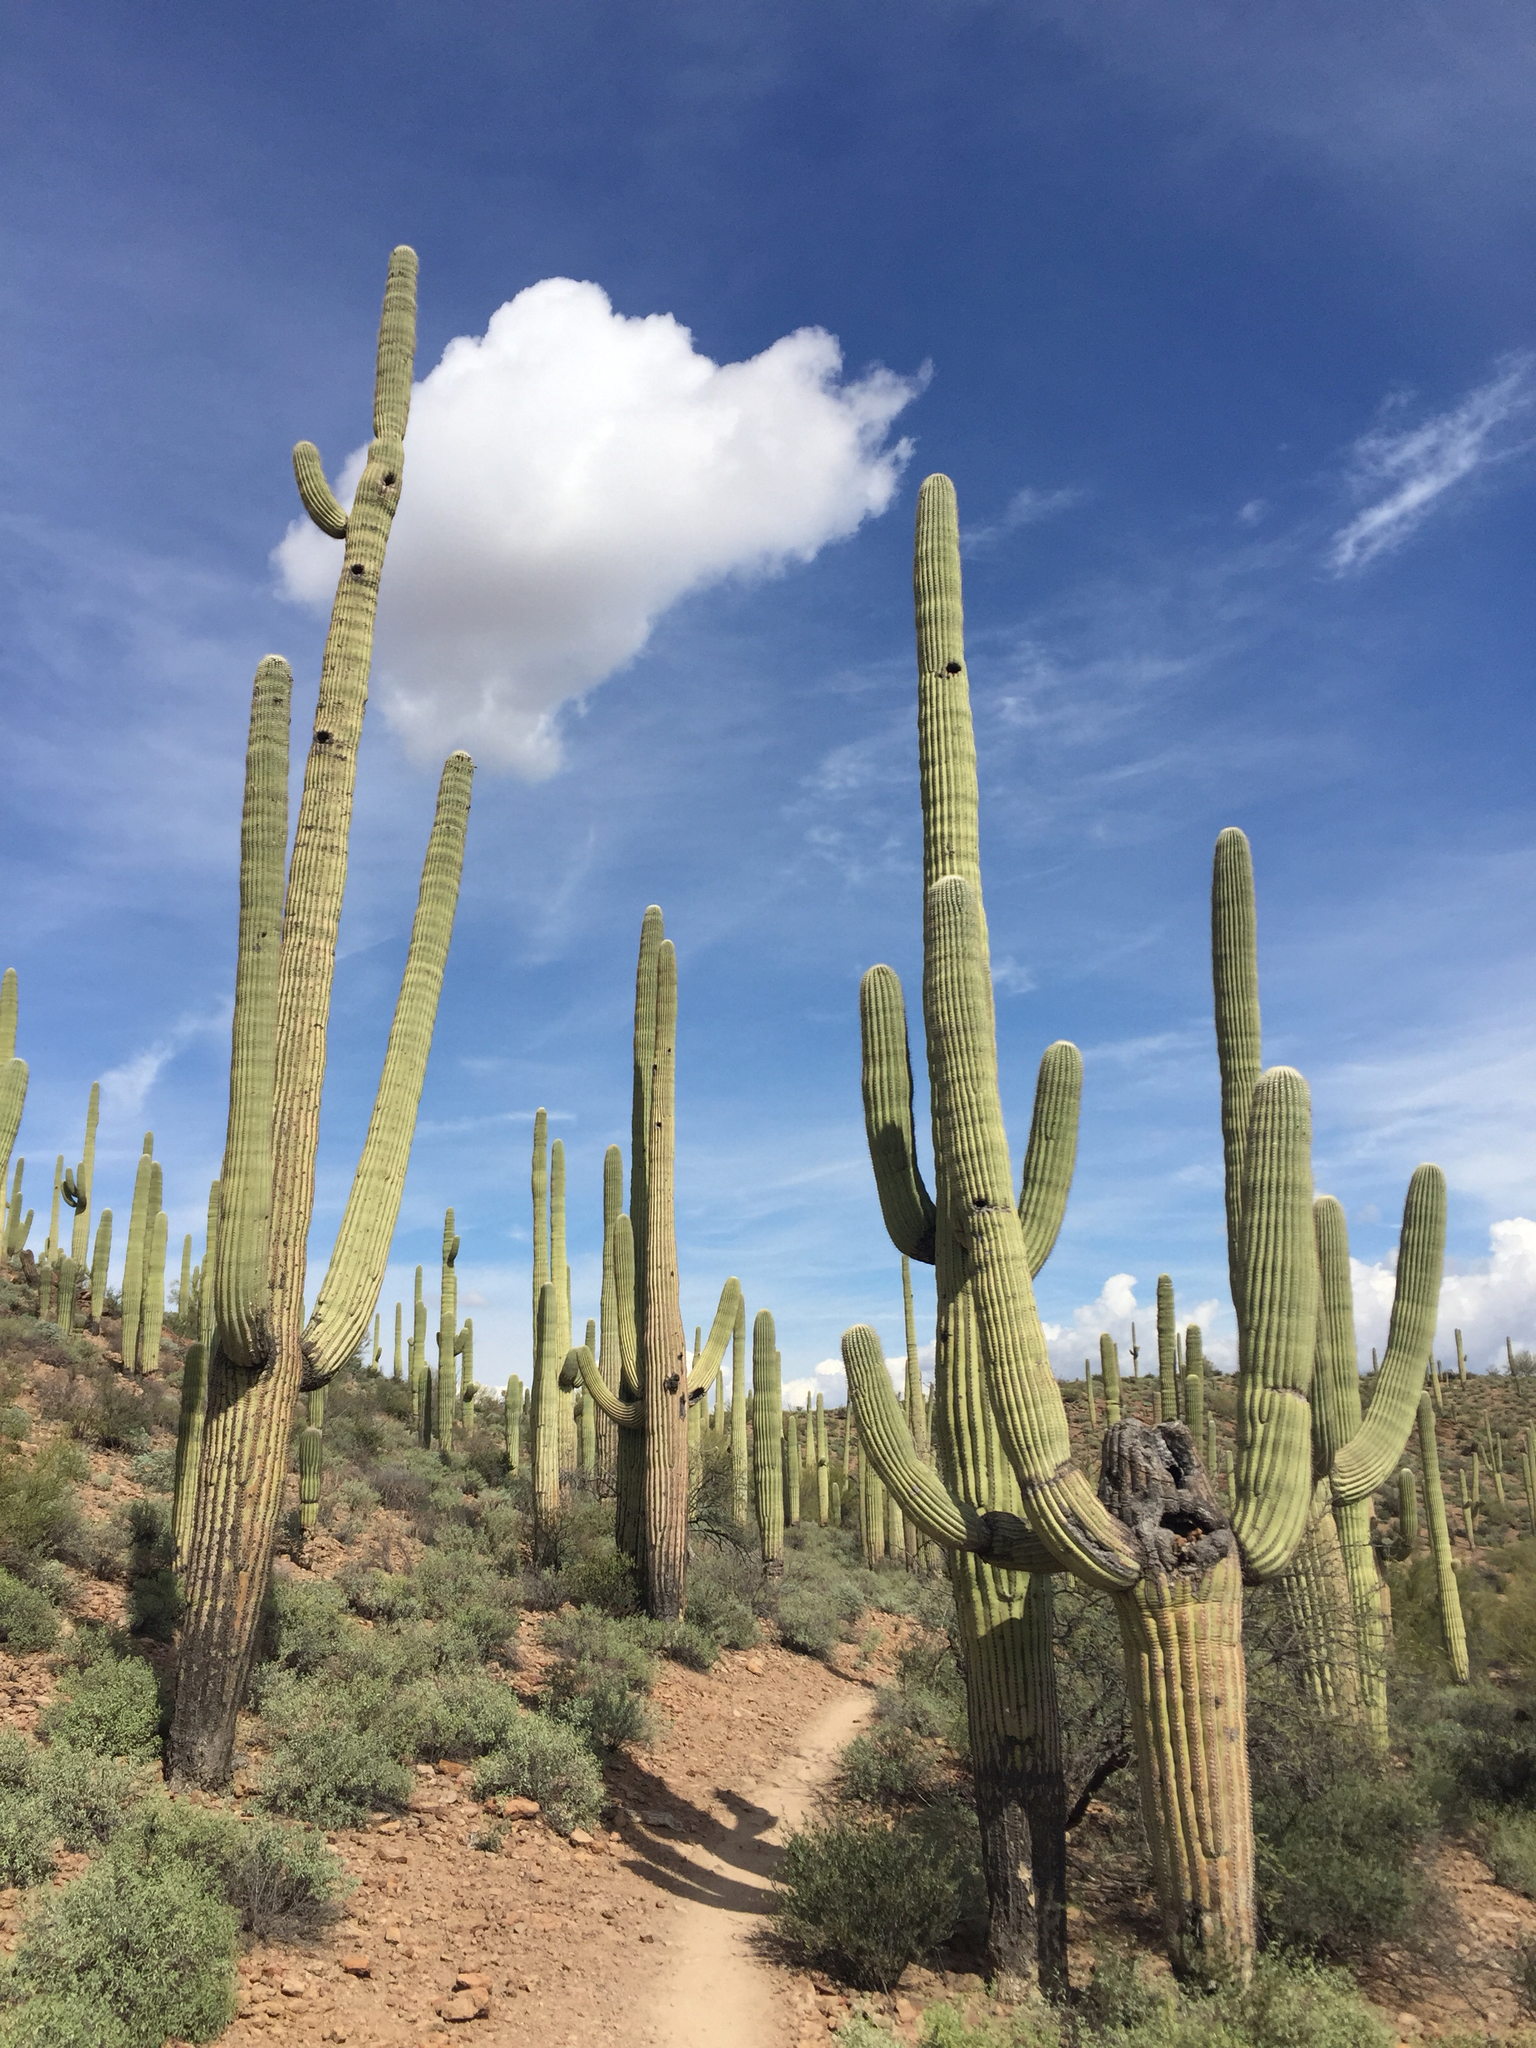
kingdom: Plantae
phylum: Tracheophyta
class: Magnoliopsida
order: Caryophyllales
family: Cactaceae
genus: Carnegiea
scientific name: Carnegiea gigantea
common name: Saguaro
